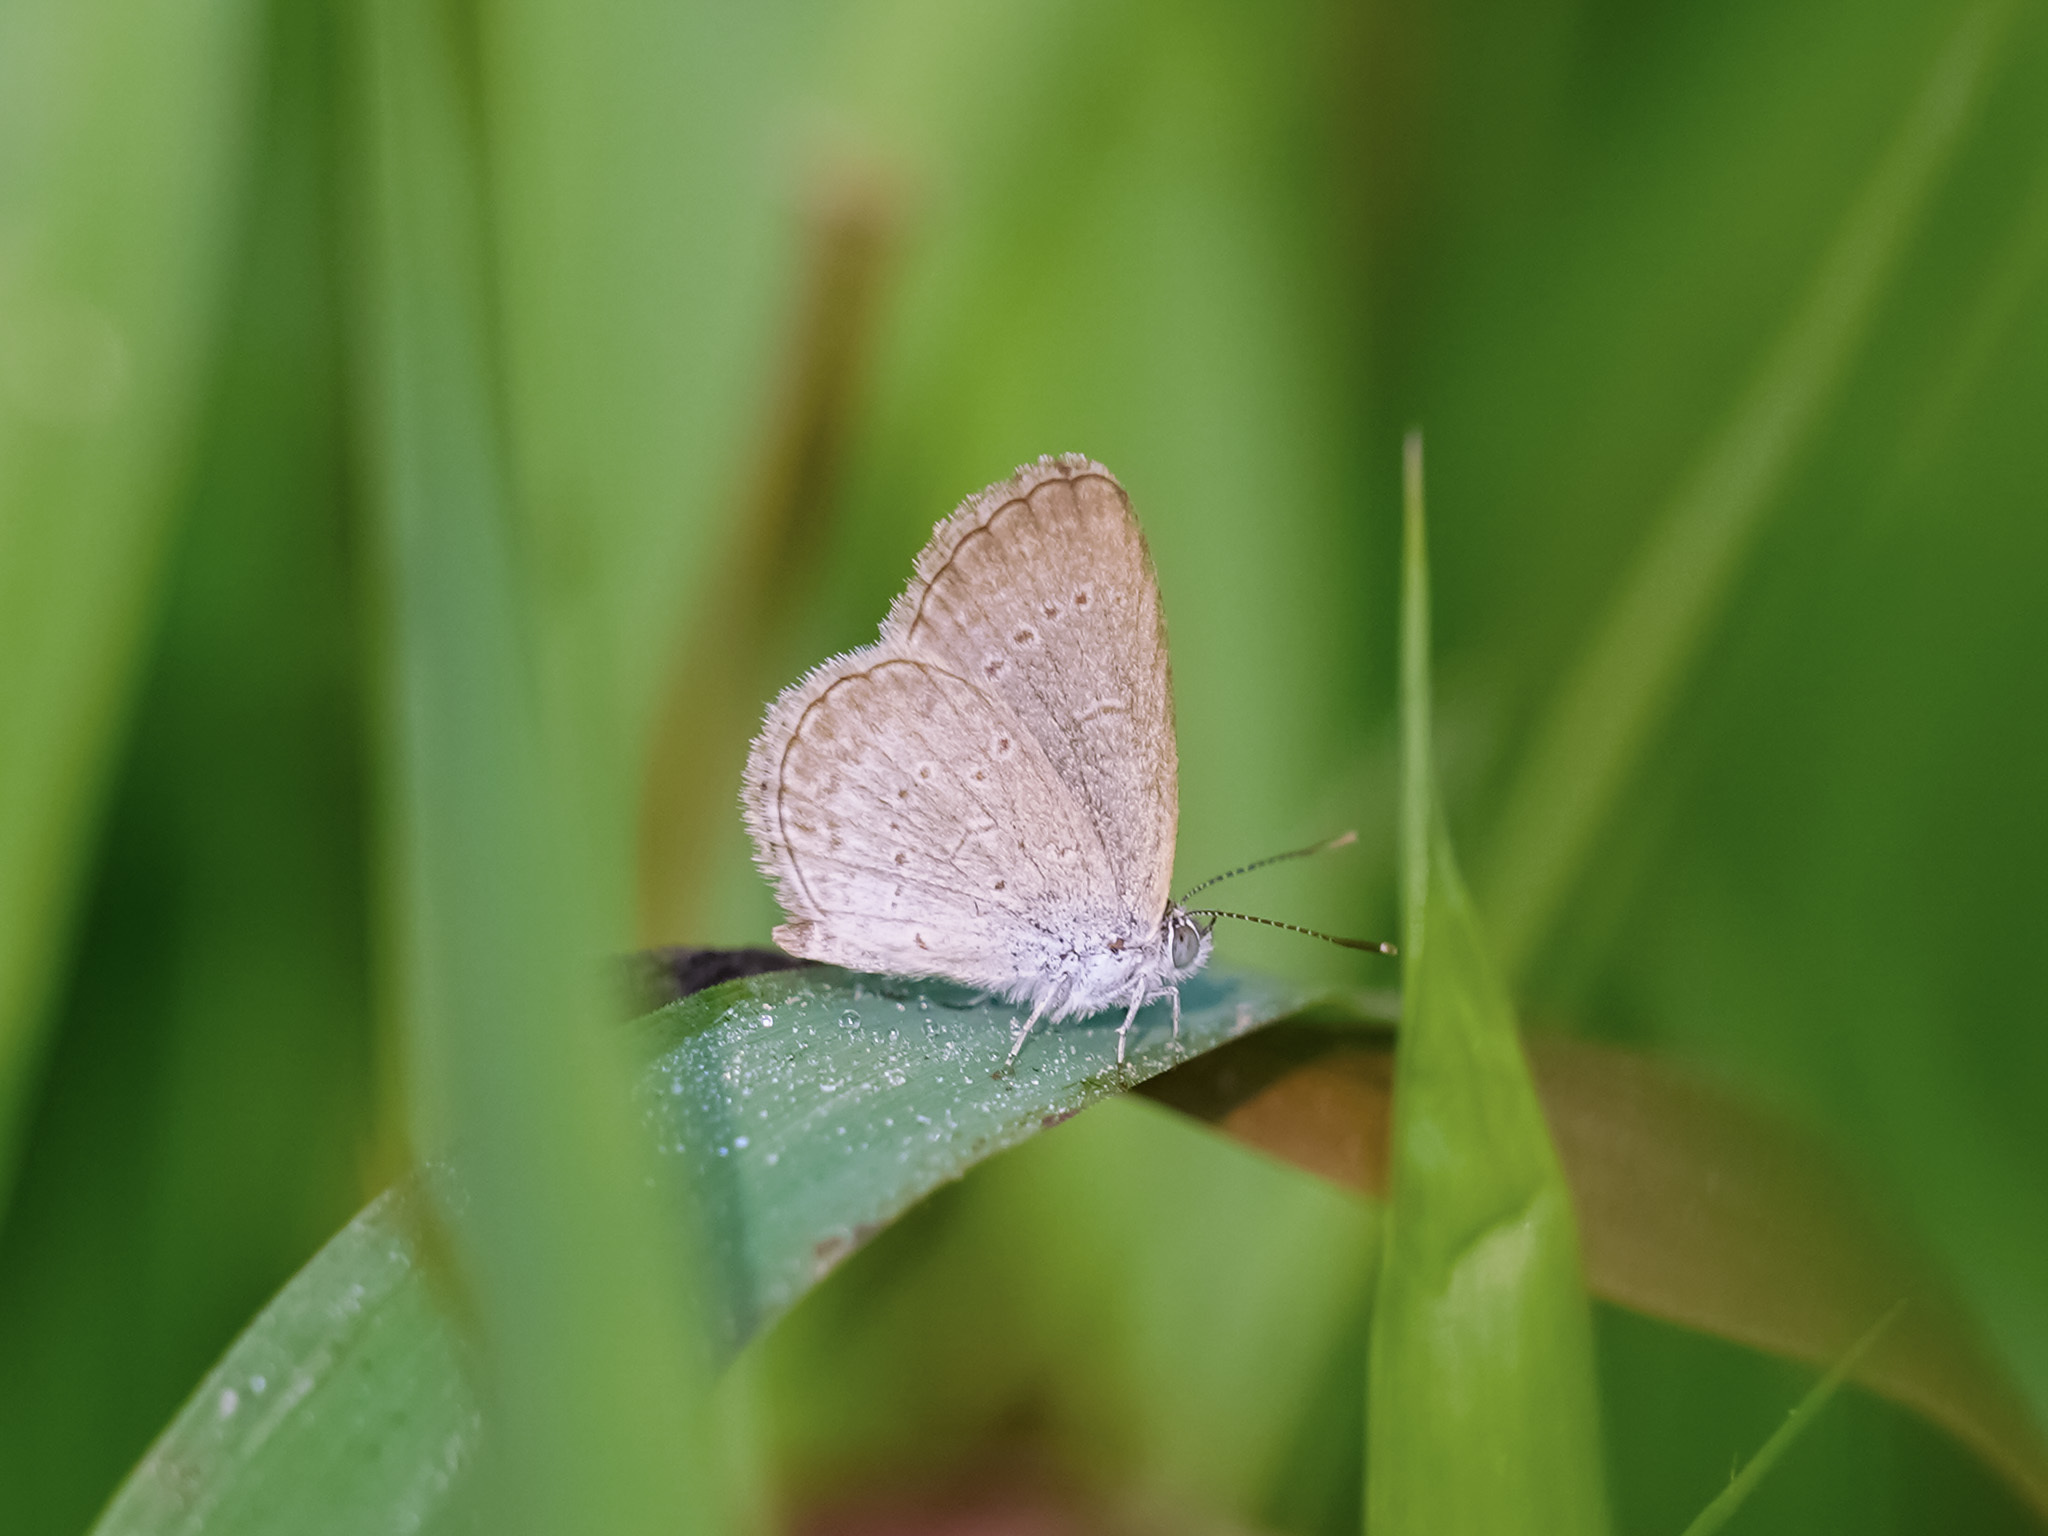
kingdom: Animalia
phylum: Arthropoda
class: Insecta
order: Lepidoptera
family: Lycaenidae
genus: Zizina
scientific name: Zizina otis
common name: Lesser grass blue
